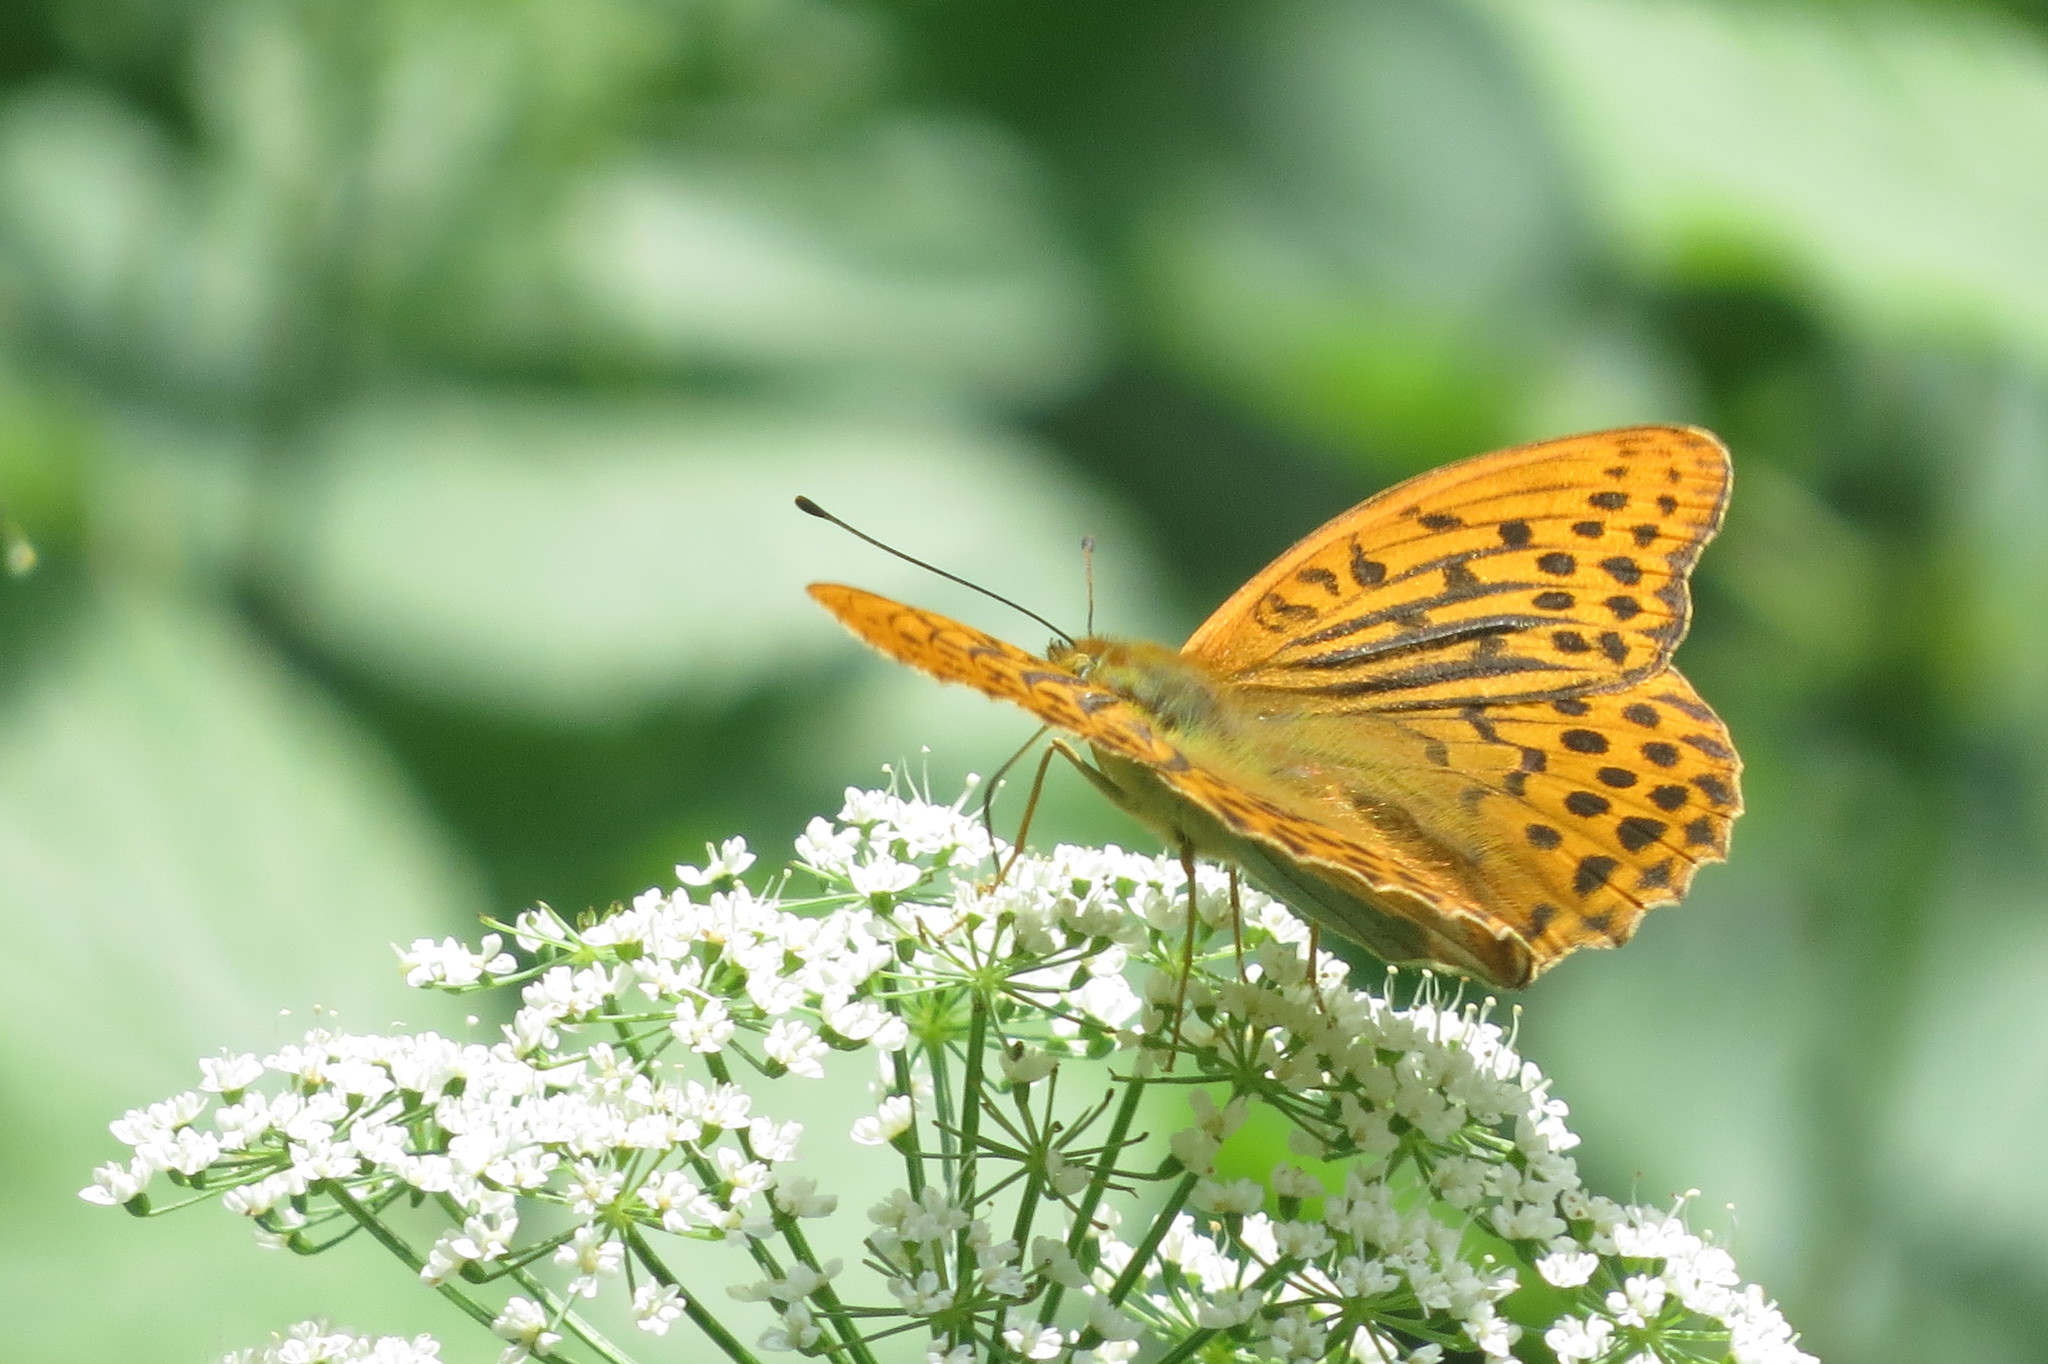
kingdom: Animalia
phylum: Arthropoda
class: Insecta
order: Lepidoptera
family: Nymphalidae
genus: Argynnis
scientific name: Argynnis paphia
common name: Silver-washed fritillary
